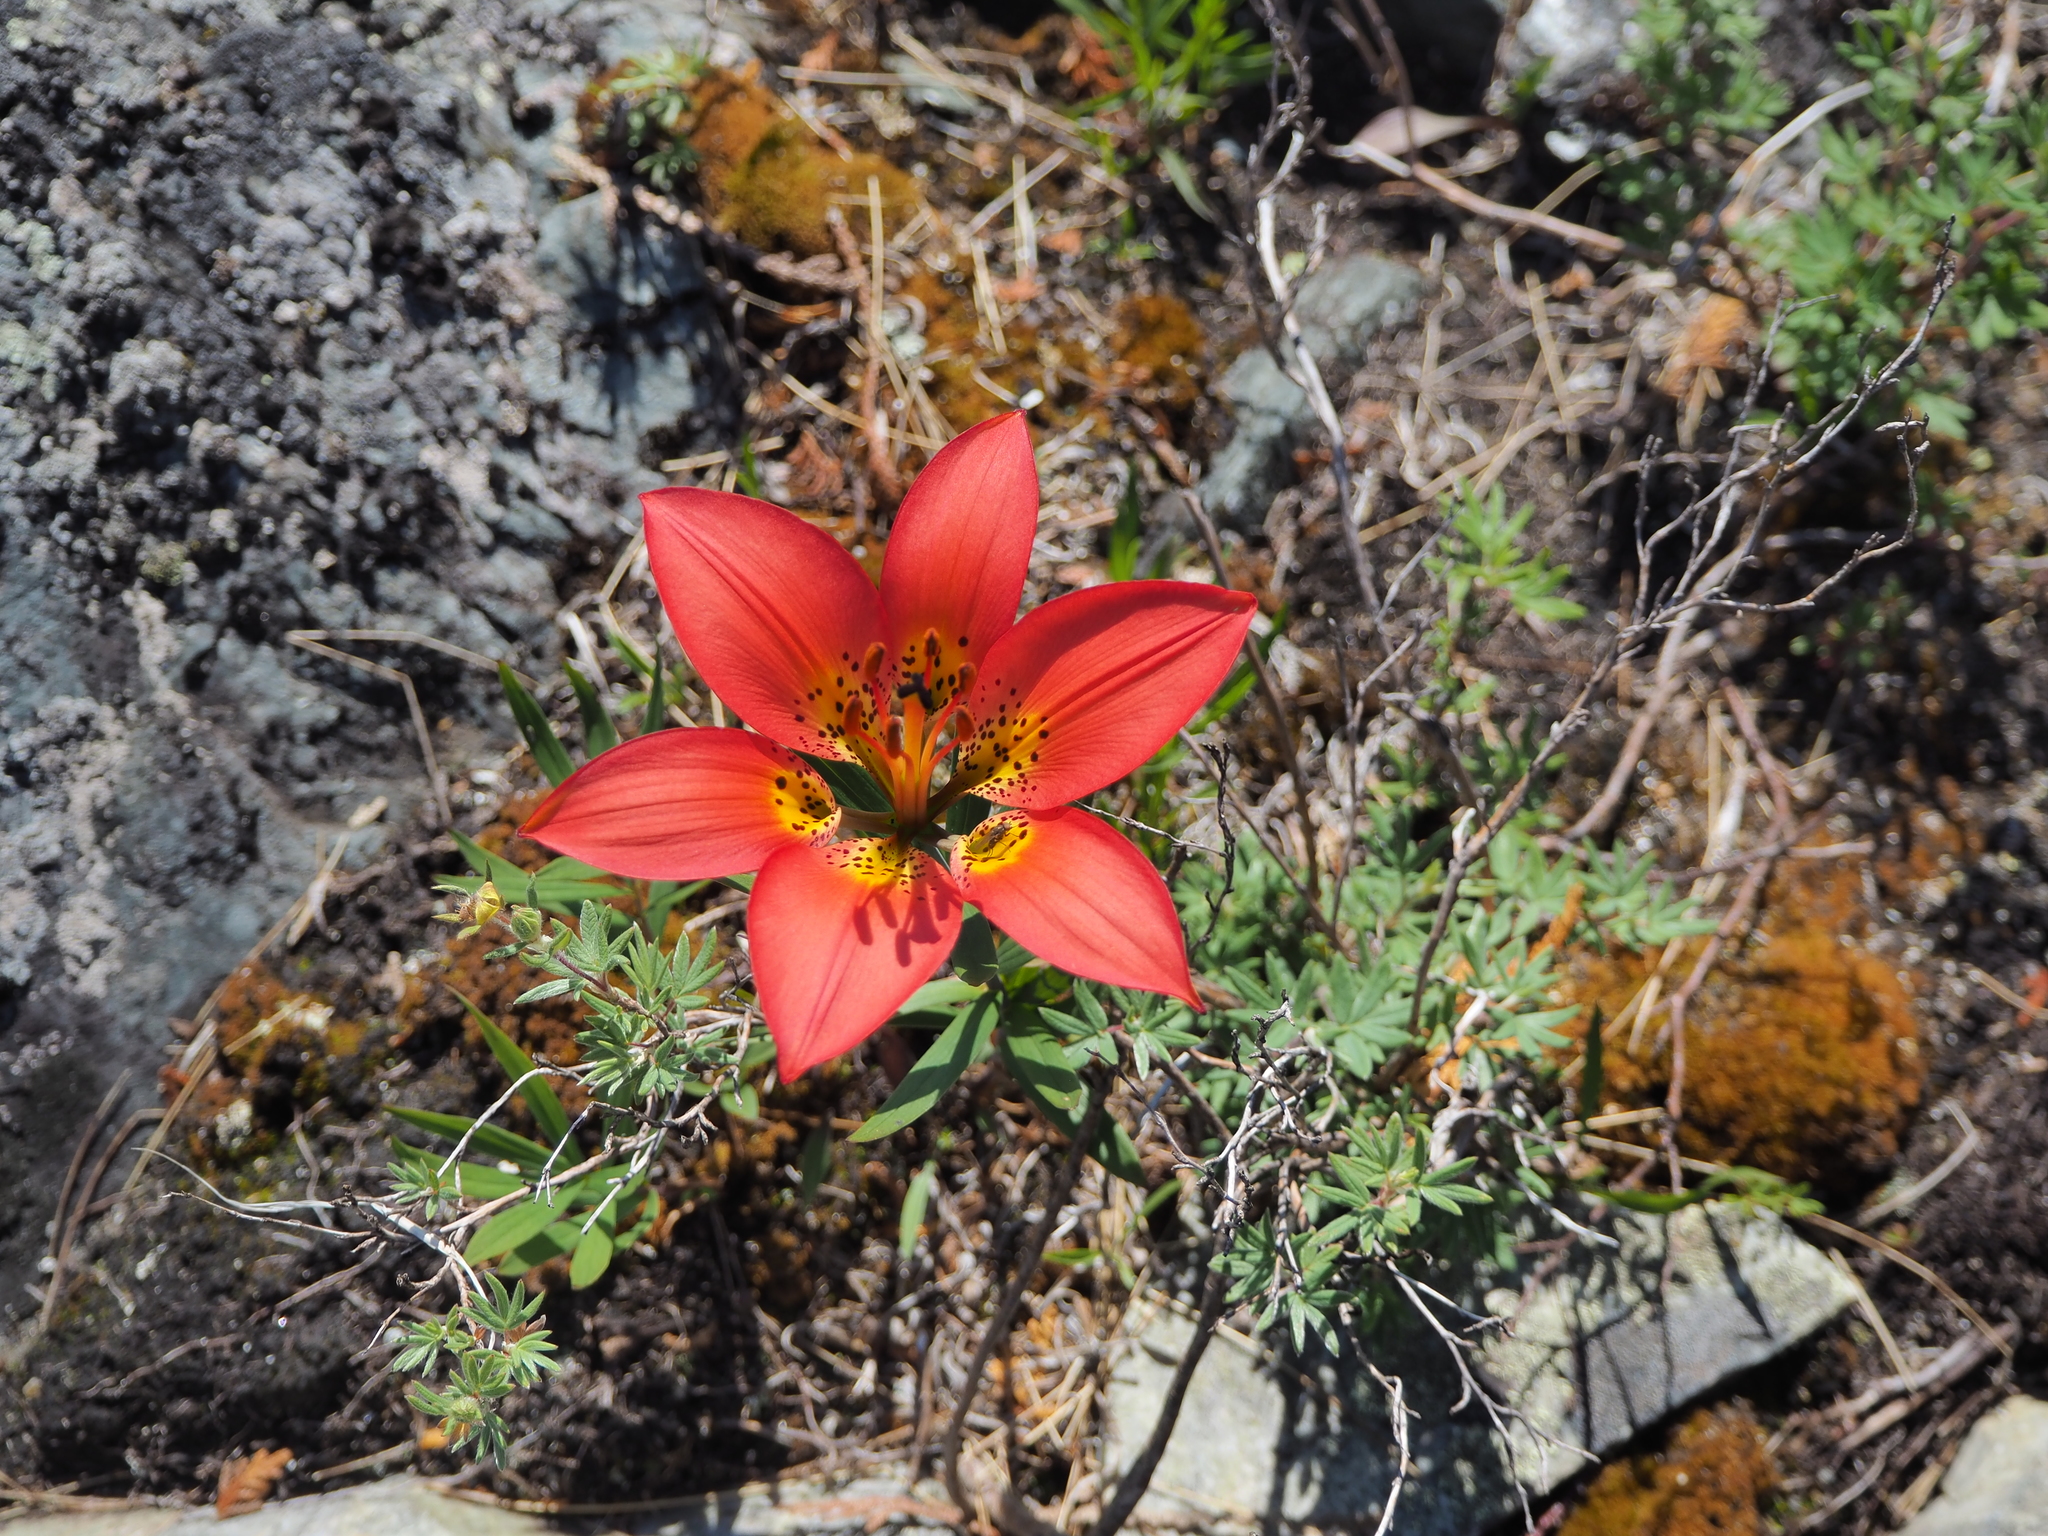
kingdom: Plantae
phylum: Tracheophyta
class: Liliopsida
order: Liliales
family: Liliaceae
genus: Lilium
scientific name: Lilium philadelphicum
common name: Red lily
